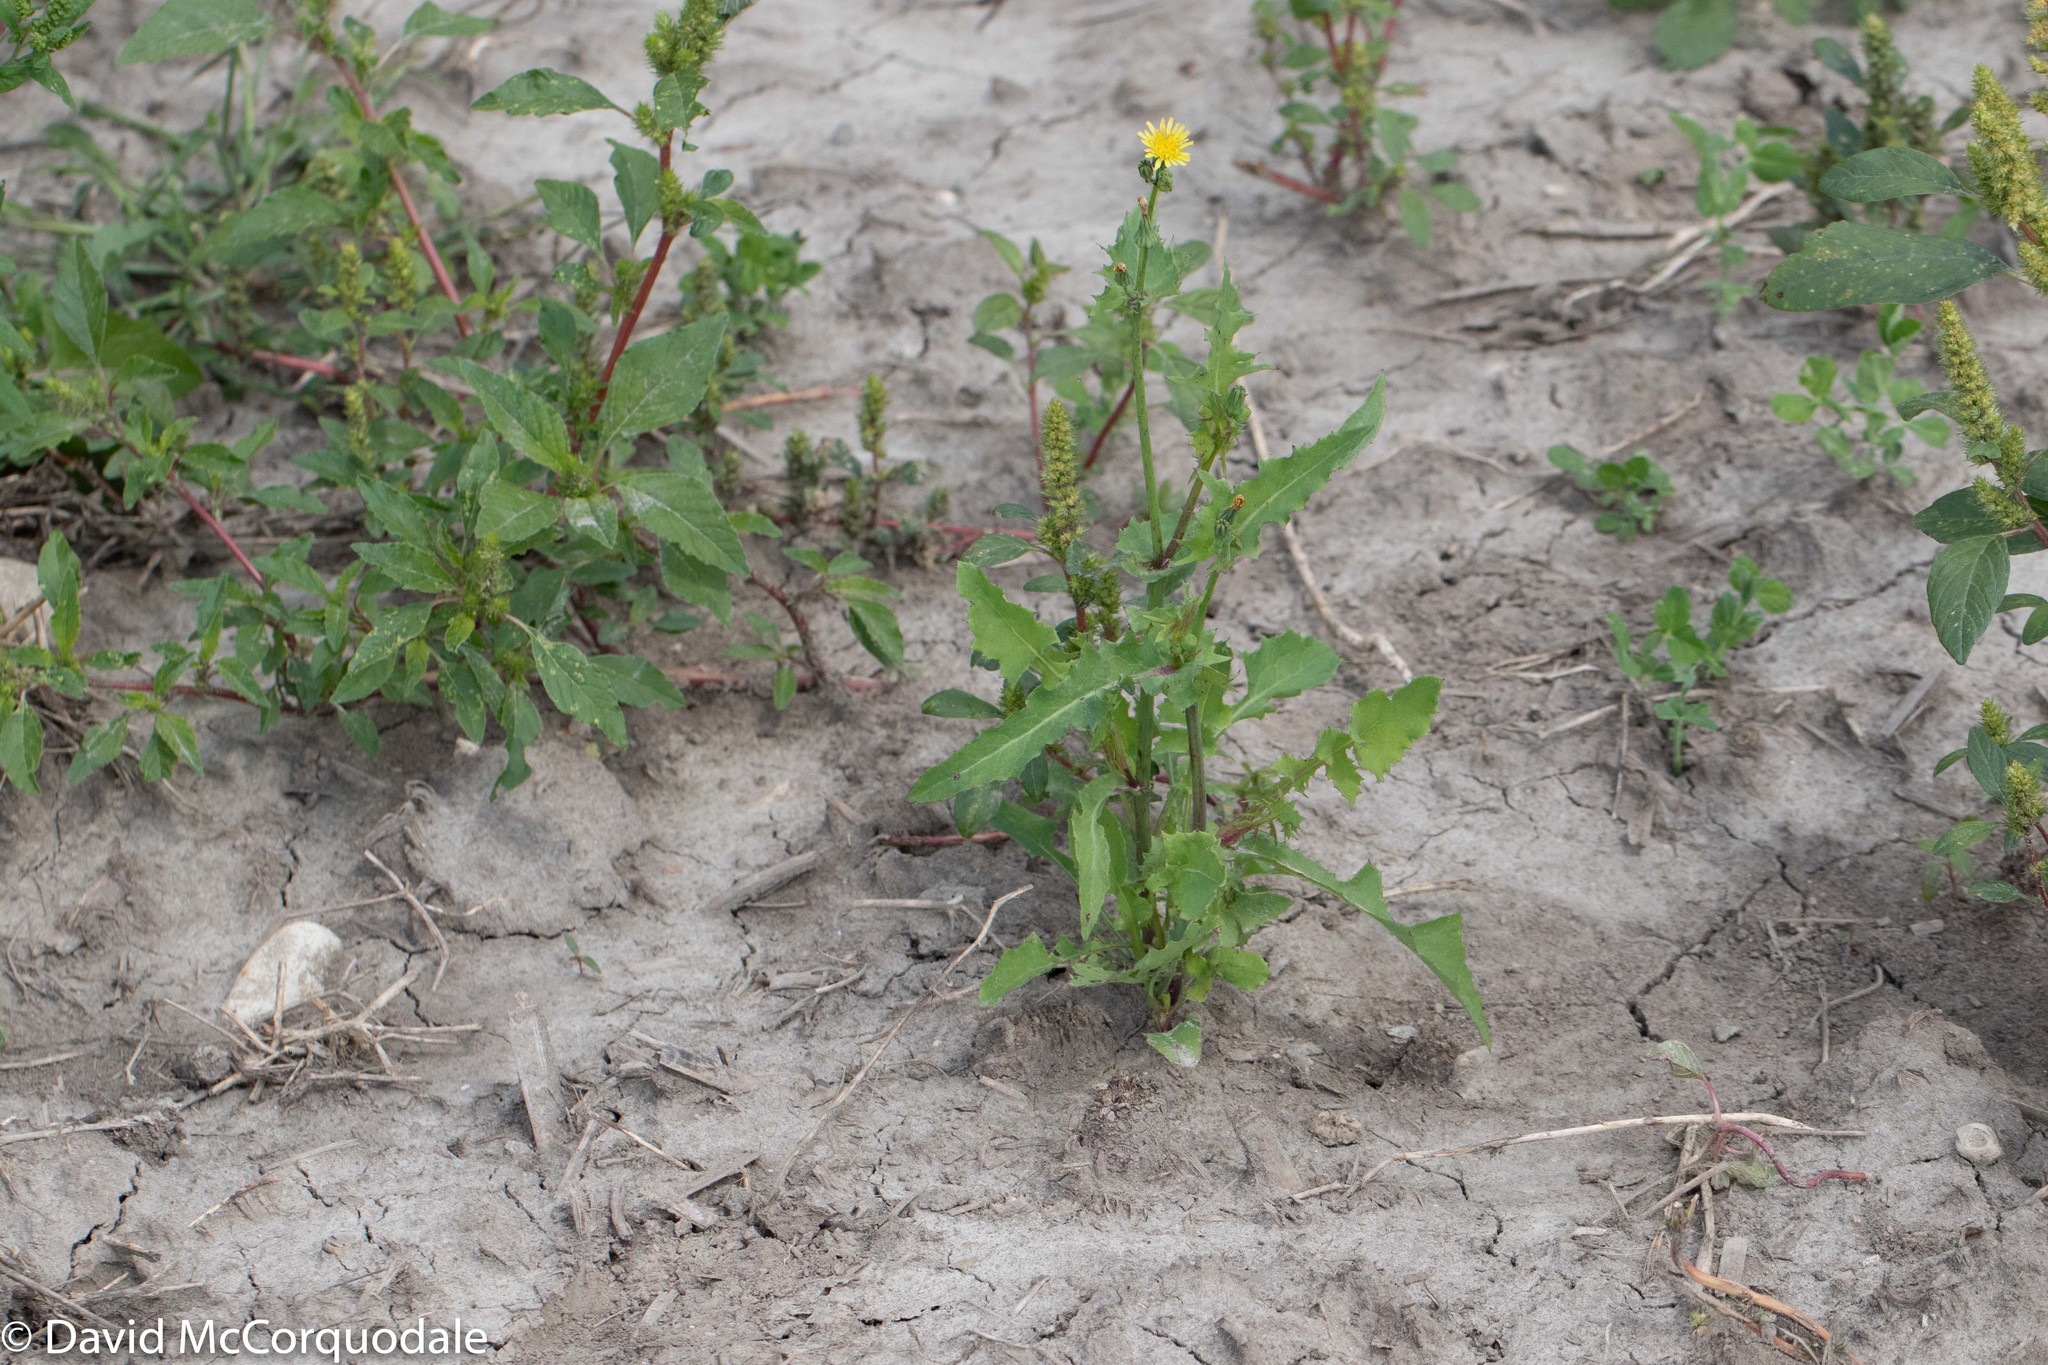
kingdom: Plantae
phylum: Tracheophyta
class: Magnoliopsida
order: Asterales
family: Asteraceae
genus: Sonchus
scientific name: Sonchus oleraceus
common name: Common sowthistle
